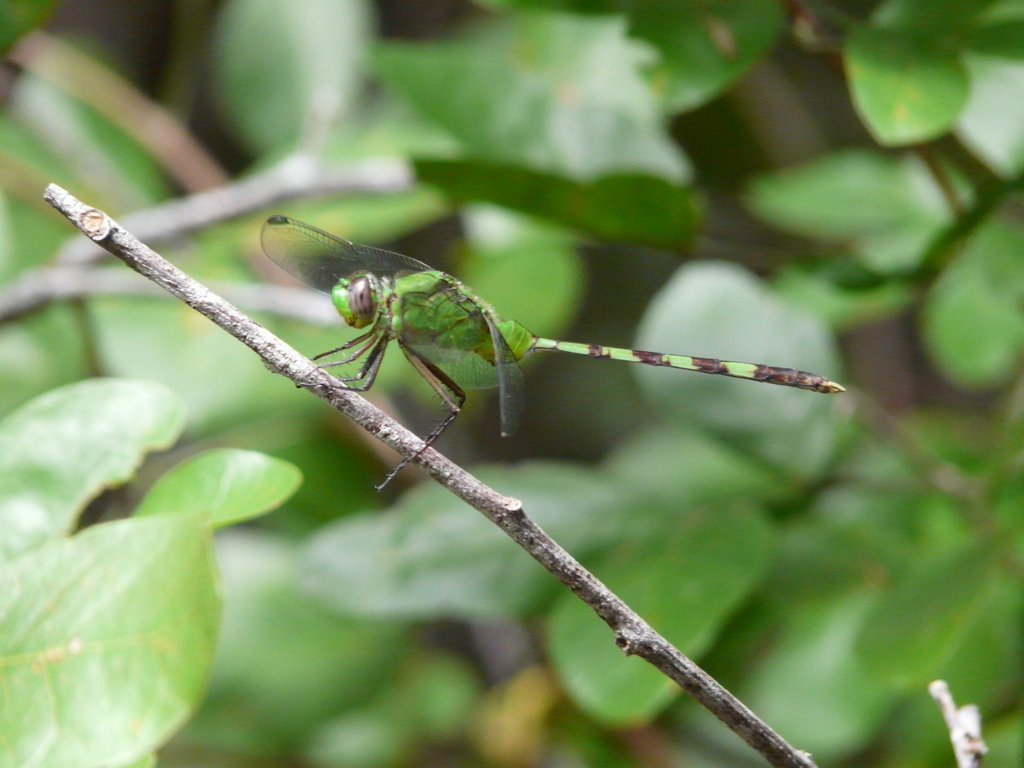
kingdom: Animalia
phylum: Arthropoda
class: Insecta
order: Odonata
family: Libellulidae
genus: Erythemis
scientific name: Erythemis vesiculosa
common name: Great pondhawk
